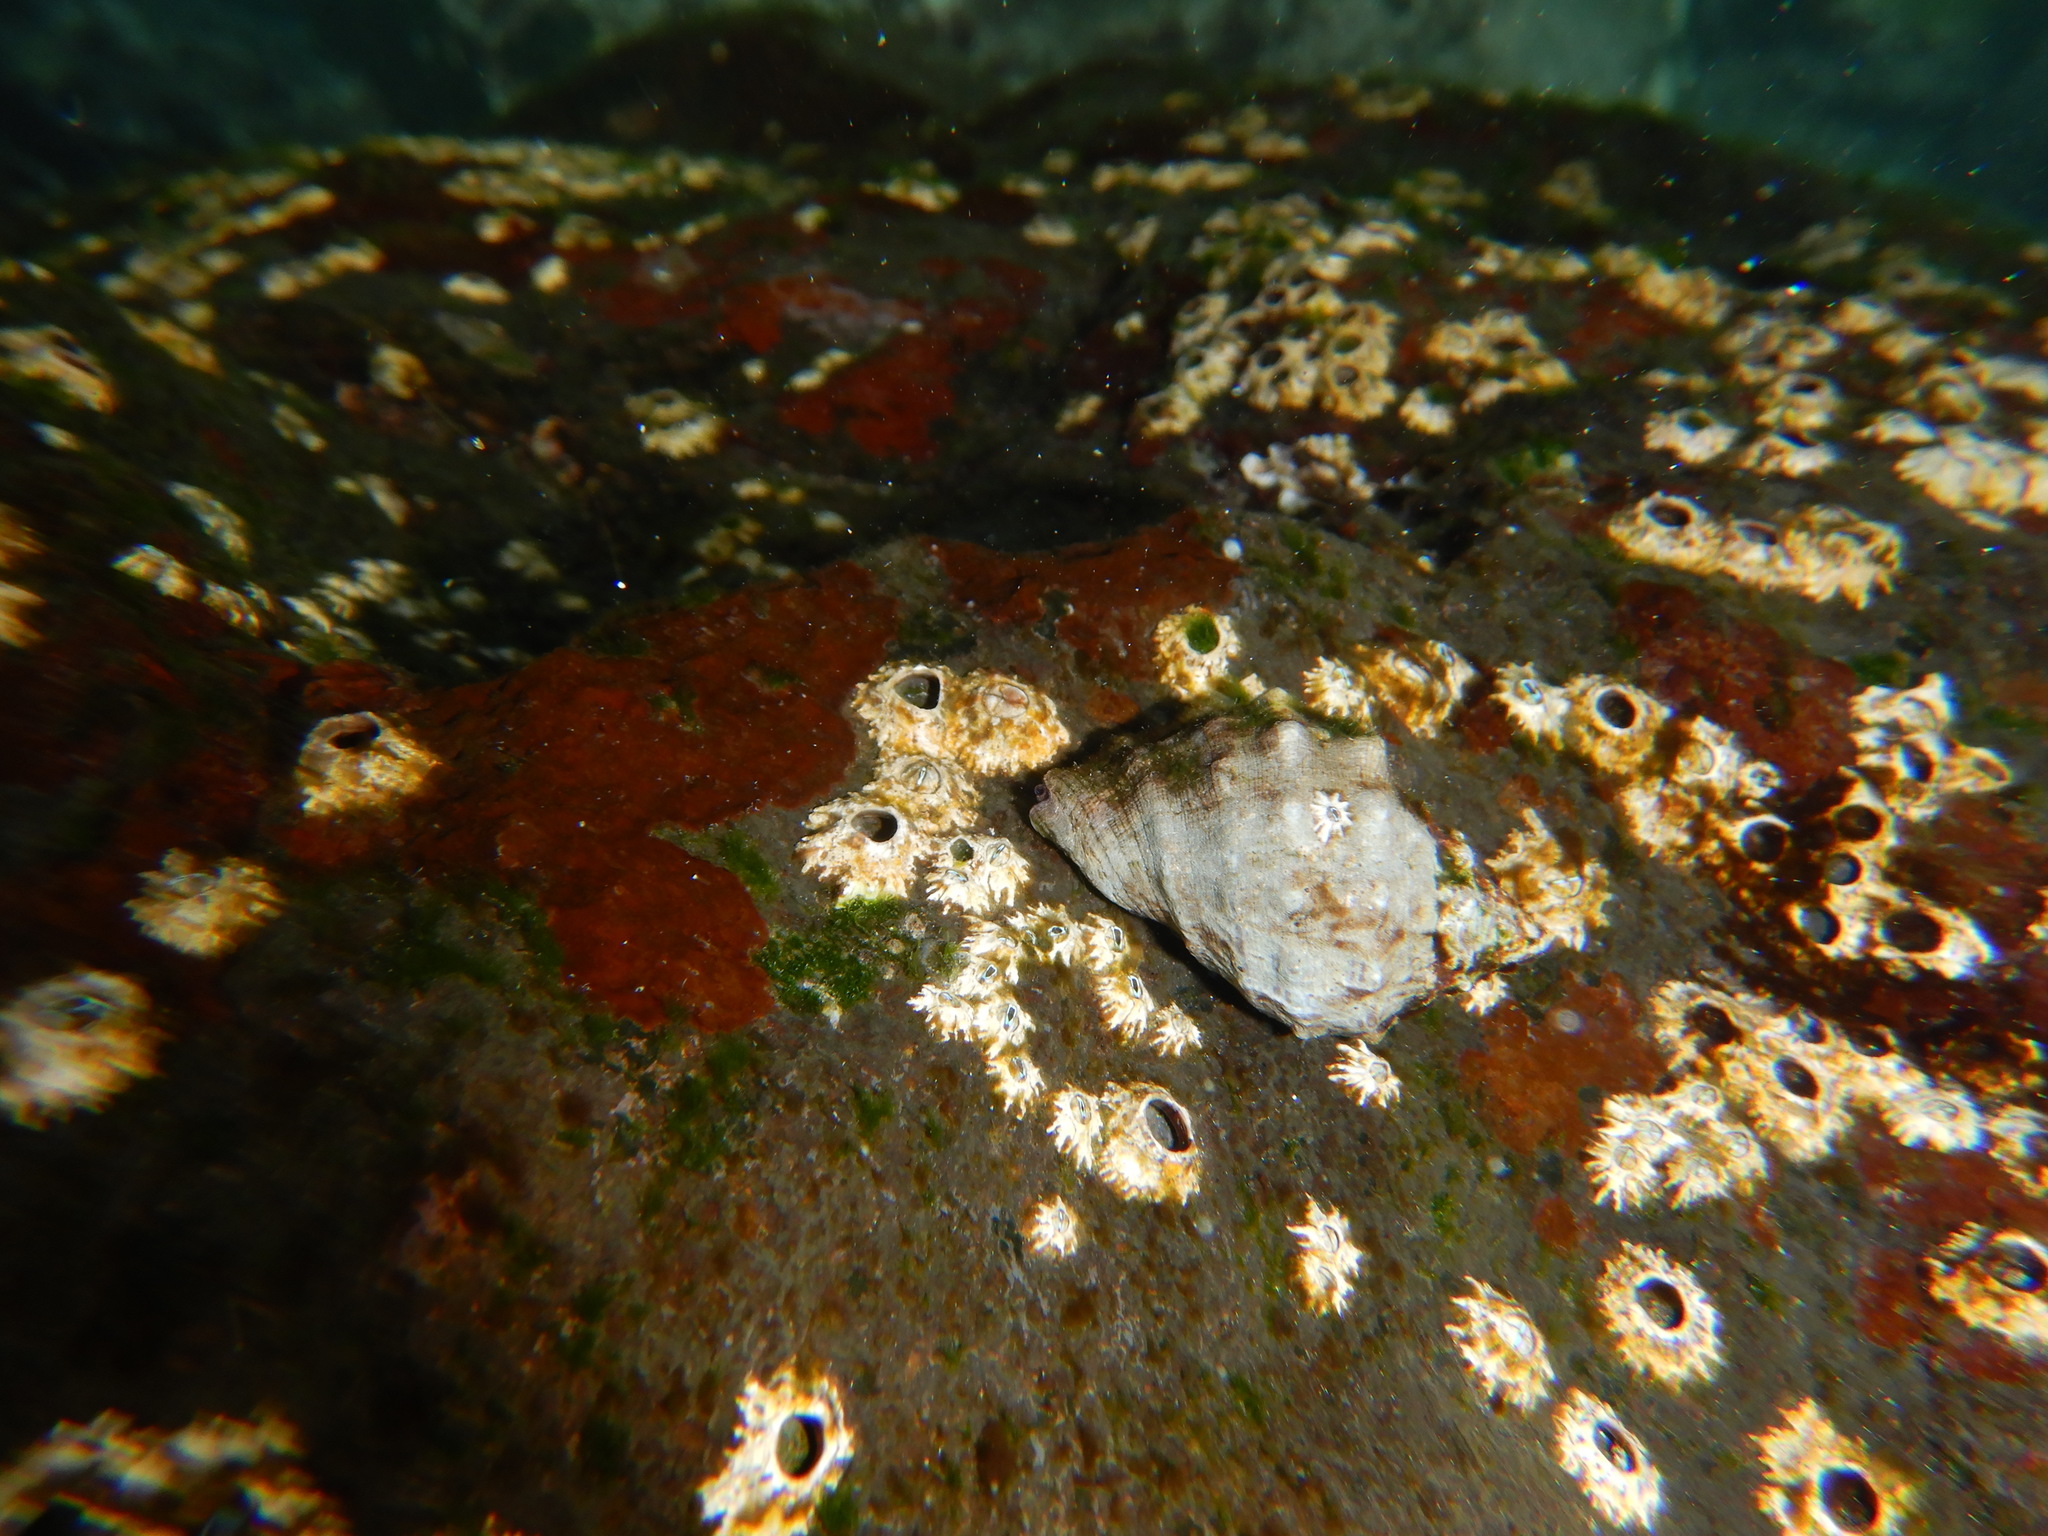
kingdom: Animalia
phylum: Mollusca
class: Gastropoda
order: Neogastropoda
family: Muricidae
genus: Stramonita
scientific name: Stramonita haemastoma
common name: Florida dog winkle
